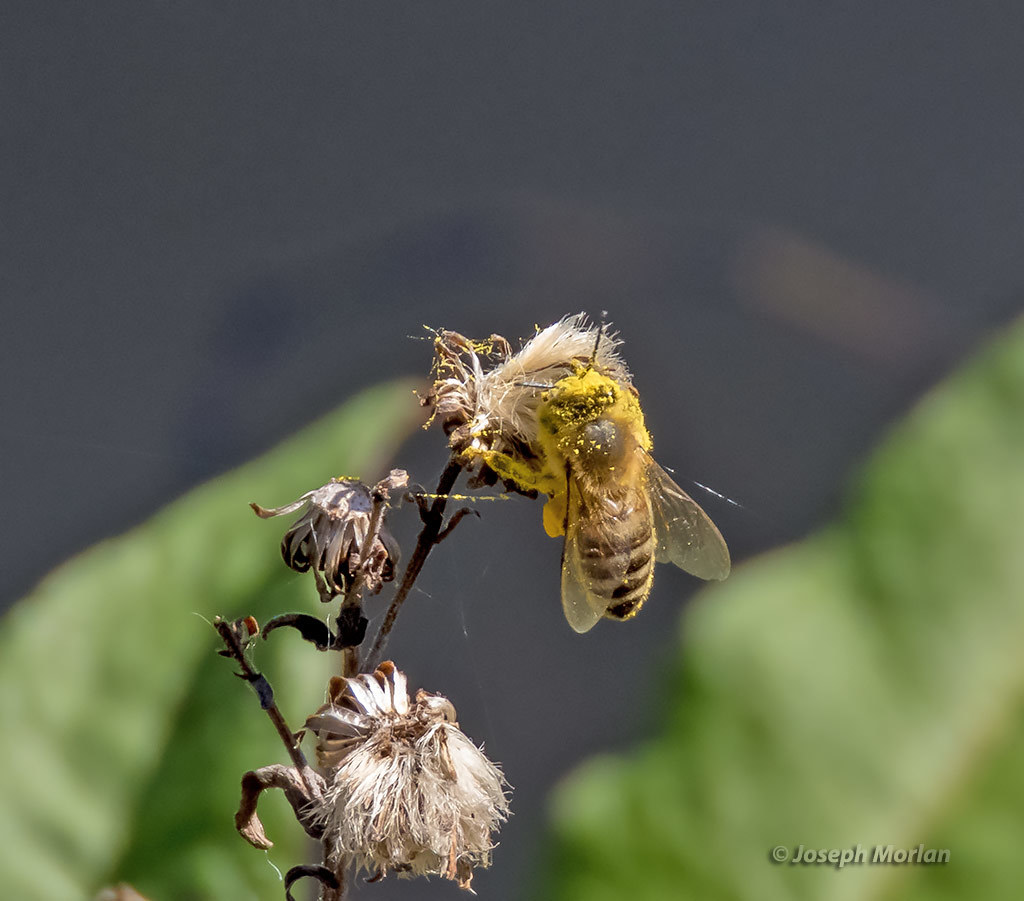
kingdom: Animalia
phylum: Arthropoda
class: Insecta
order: Hymenoptera
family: Apidae
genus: Apis
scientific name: Apis mellifera
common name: Honey bee
